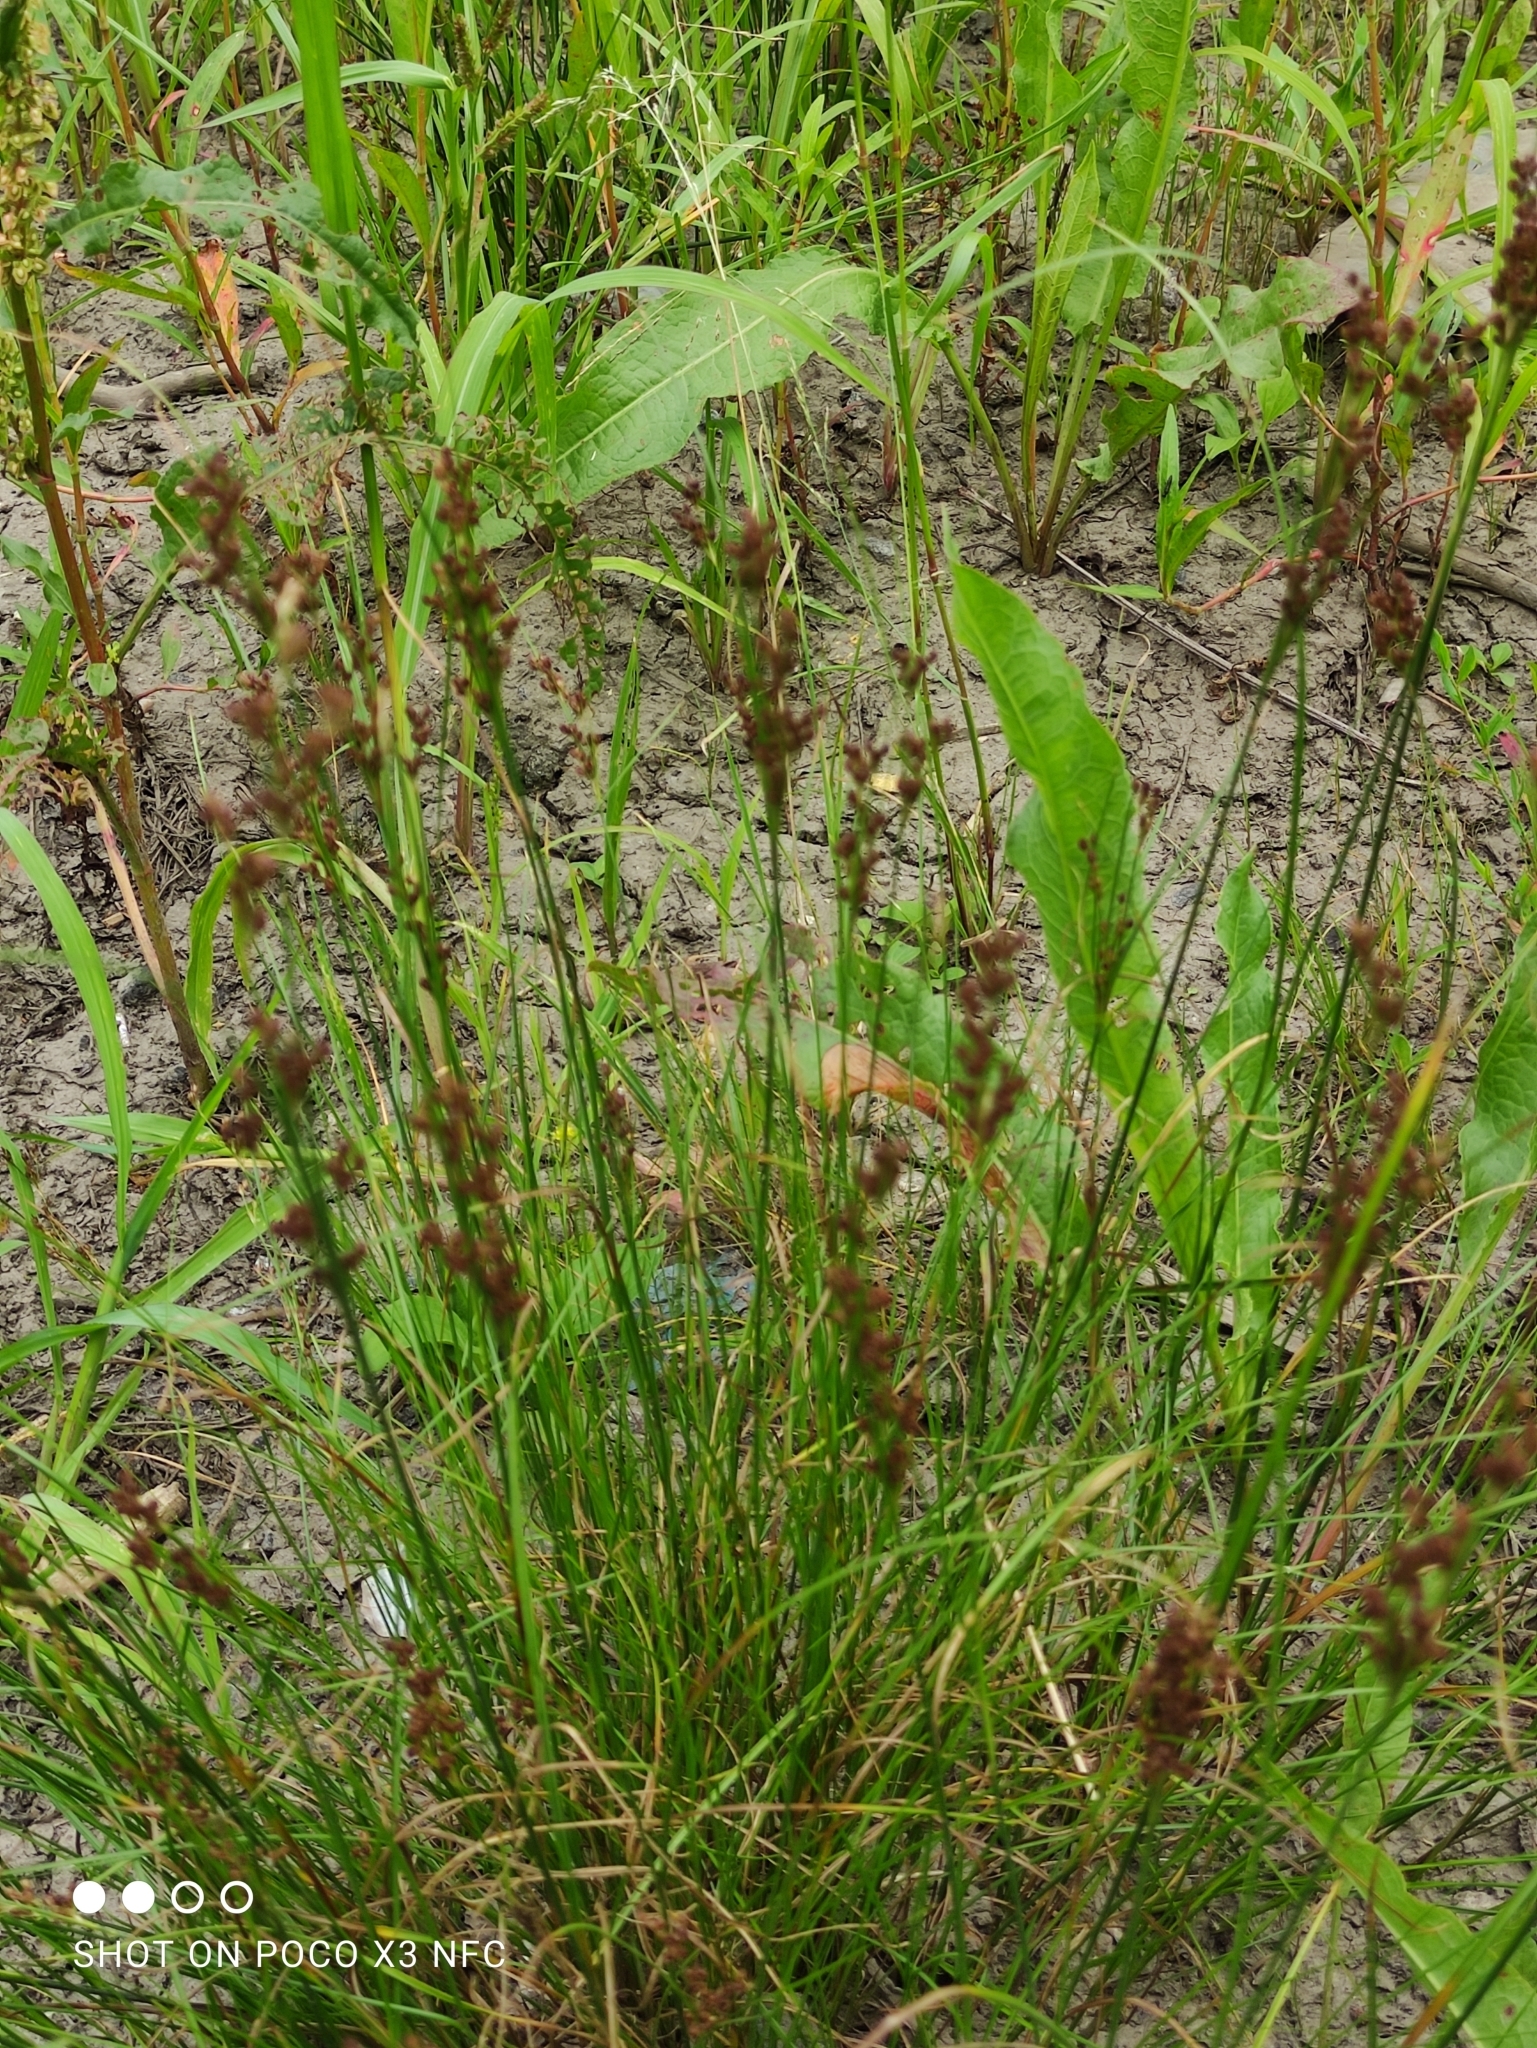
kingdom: Plantae
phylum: Tracheophyta
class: Liliopsida
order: Poales
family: Juncaceae
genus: Juncus
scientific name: Juncus compressus
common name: Round-fruited rush
